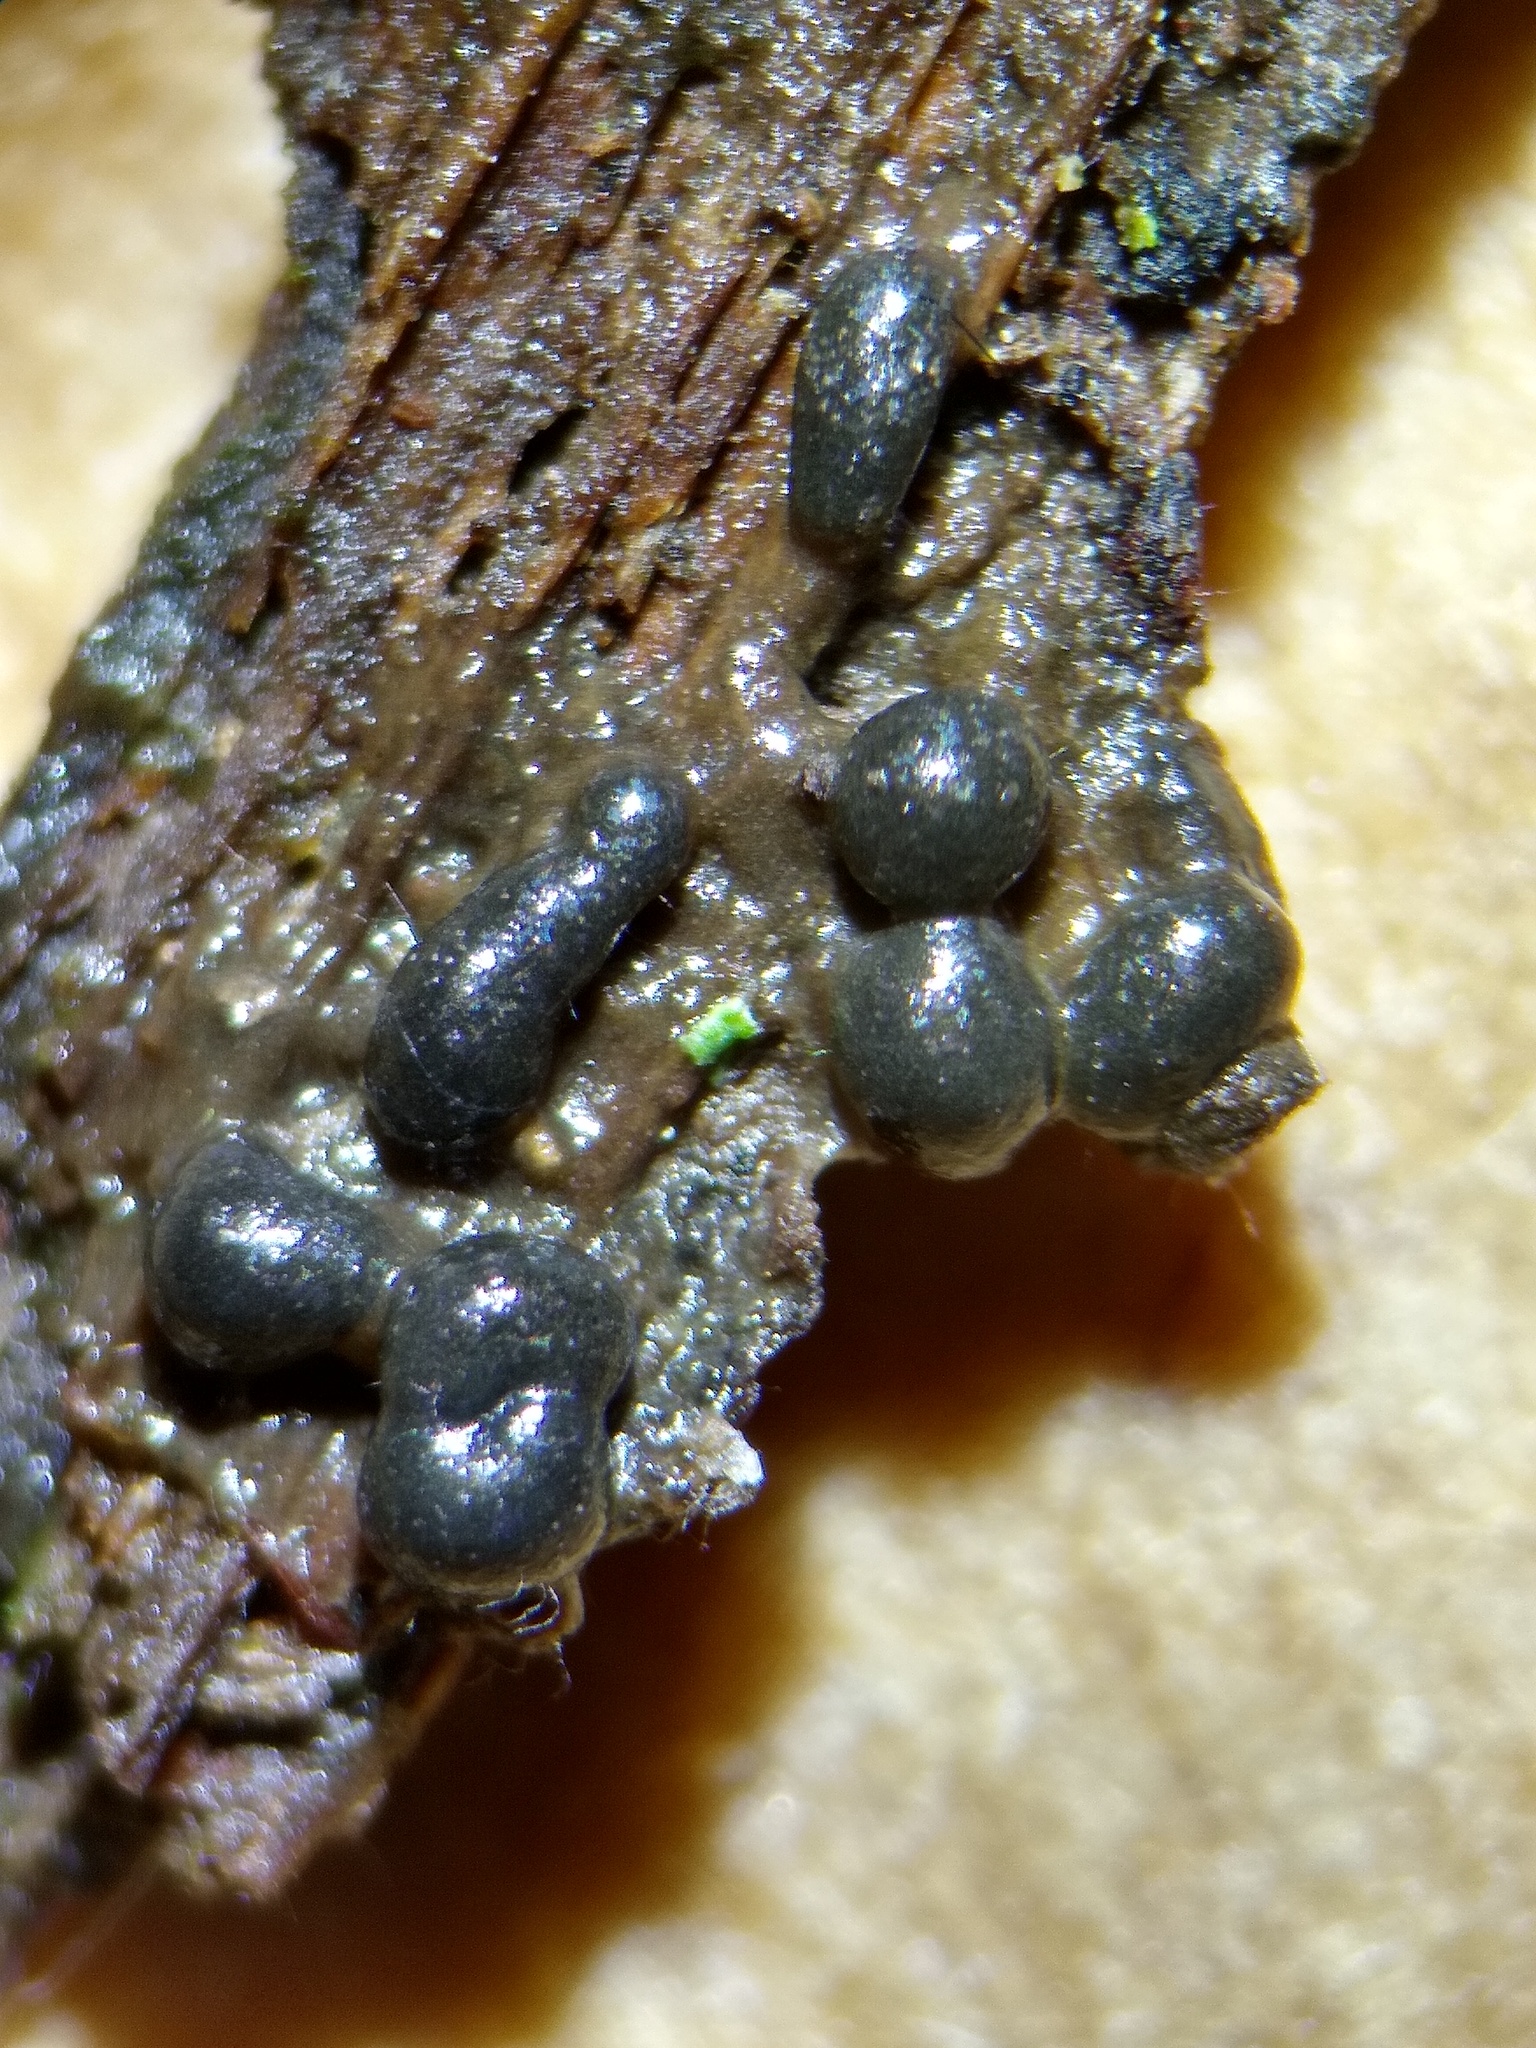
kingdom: Protozoa
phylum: Mycetozoa
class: Myxomycetes
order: Stemonitidales
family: Stemonitidaceae
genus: Colloderma
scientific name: Colloderma robustum
